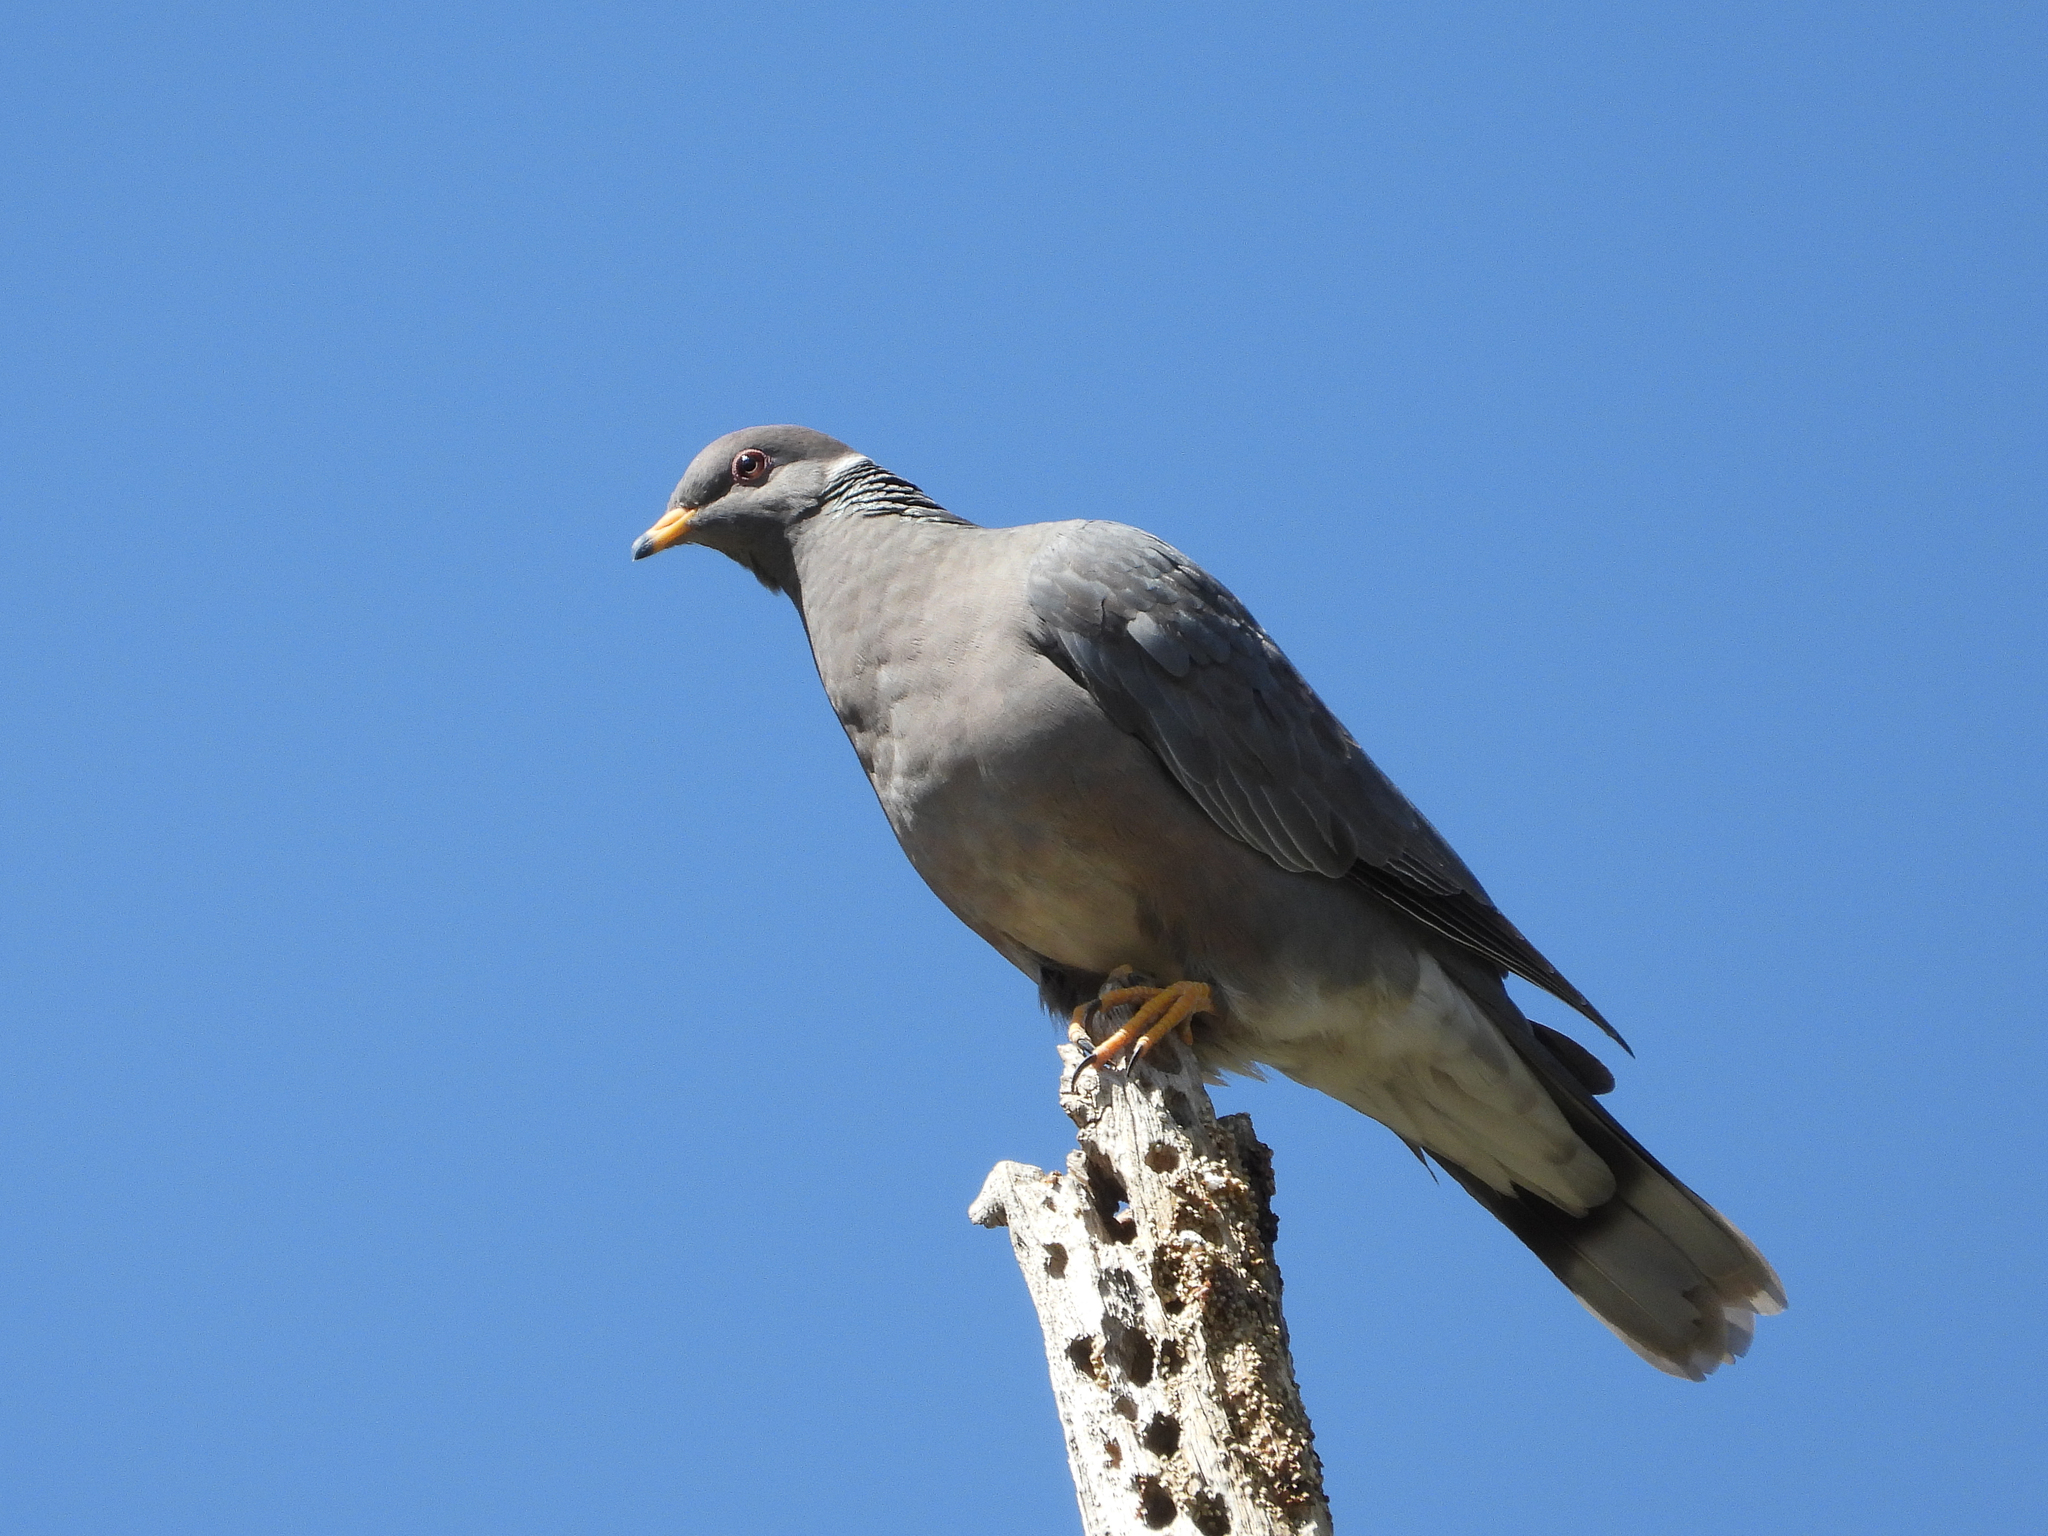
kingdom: Animalia
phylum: Chordata
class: Aves
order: Columbiformes
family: Columbidae
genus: Patagioenas
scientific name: Patagioenas fasciata
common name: Band-tailed pigeon
